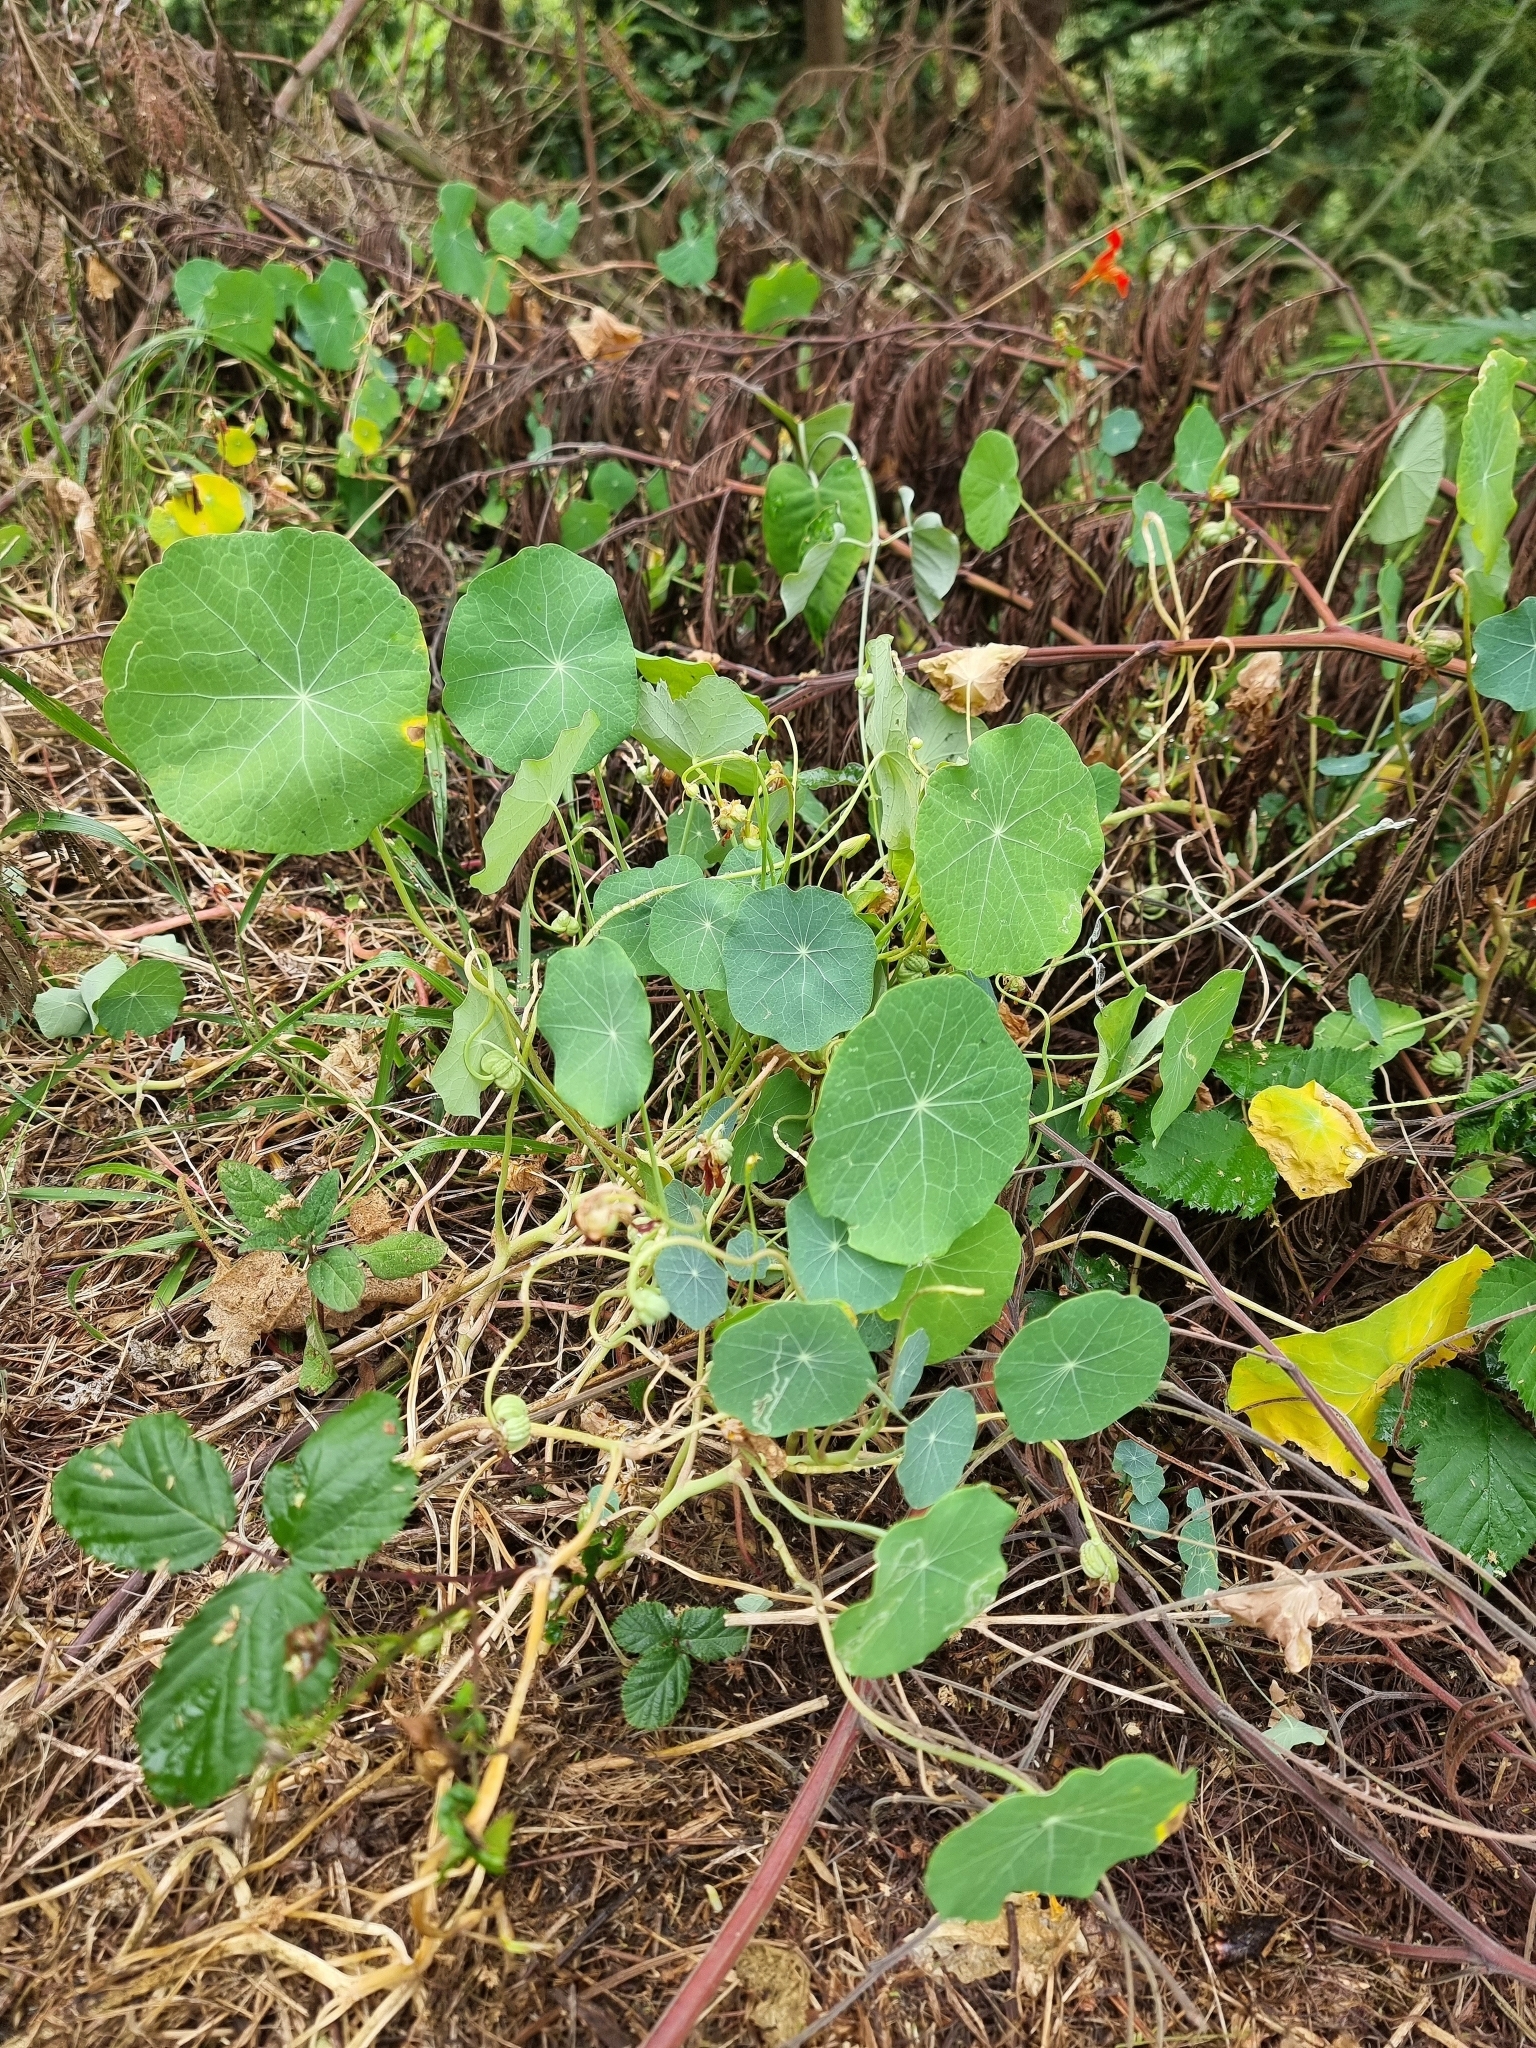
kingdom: Plantae
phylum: Tracheophyta
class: Magnoliopsida
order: Brassicales
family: Tropaeolaceae
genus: Tropaeolum
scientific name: Tropaeolum majus
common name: Nasturtium
